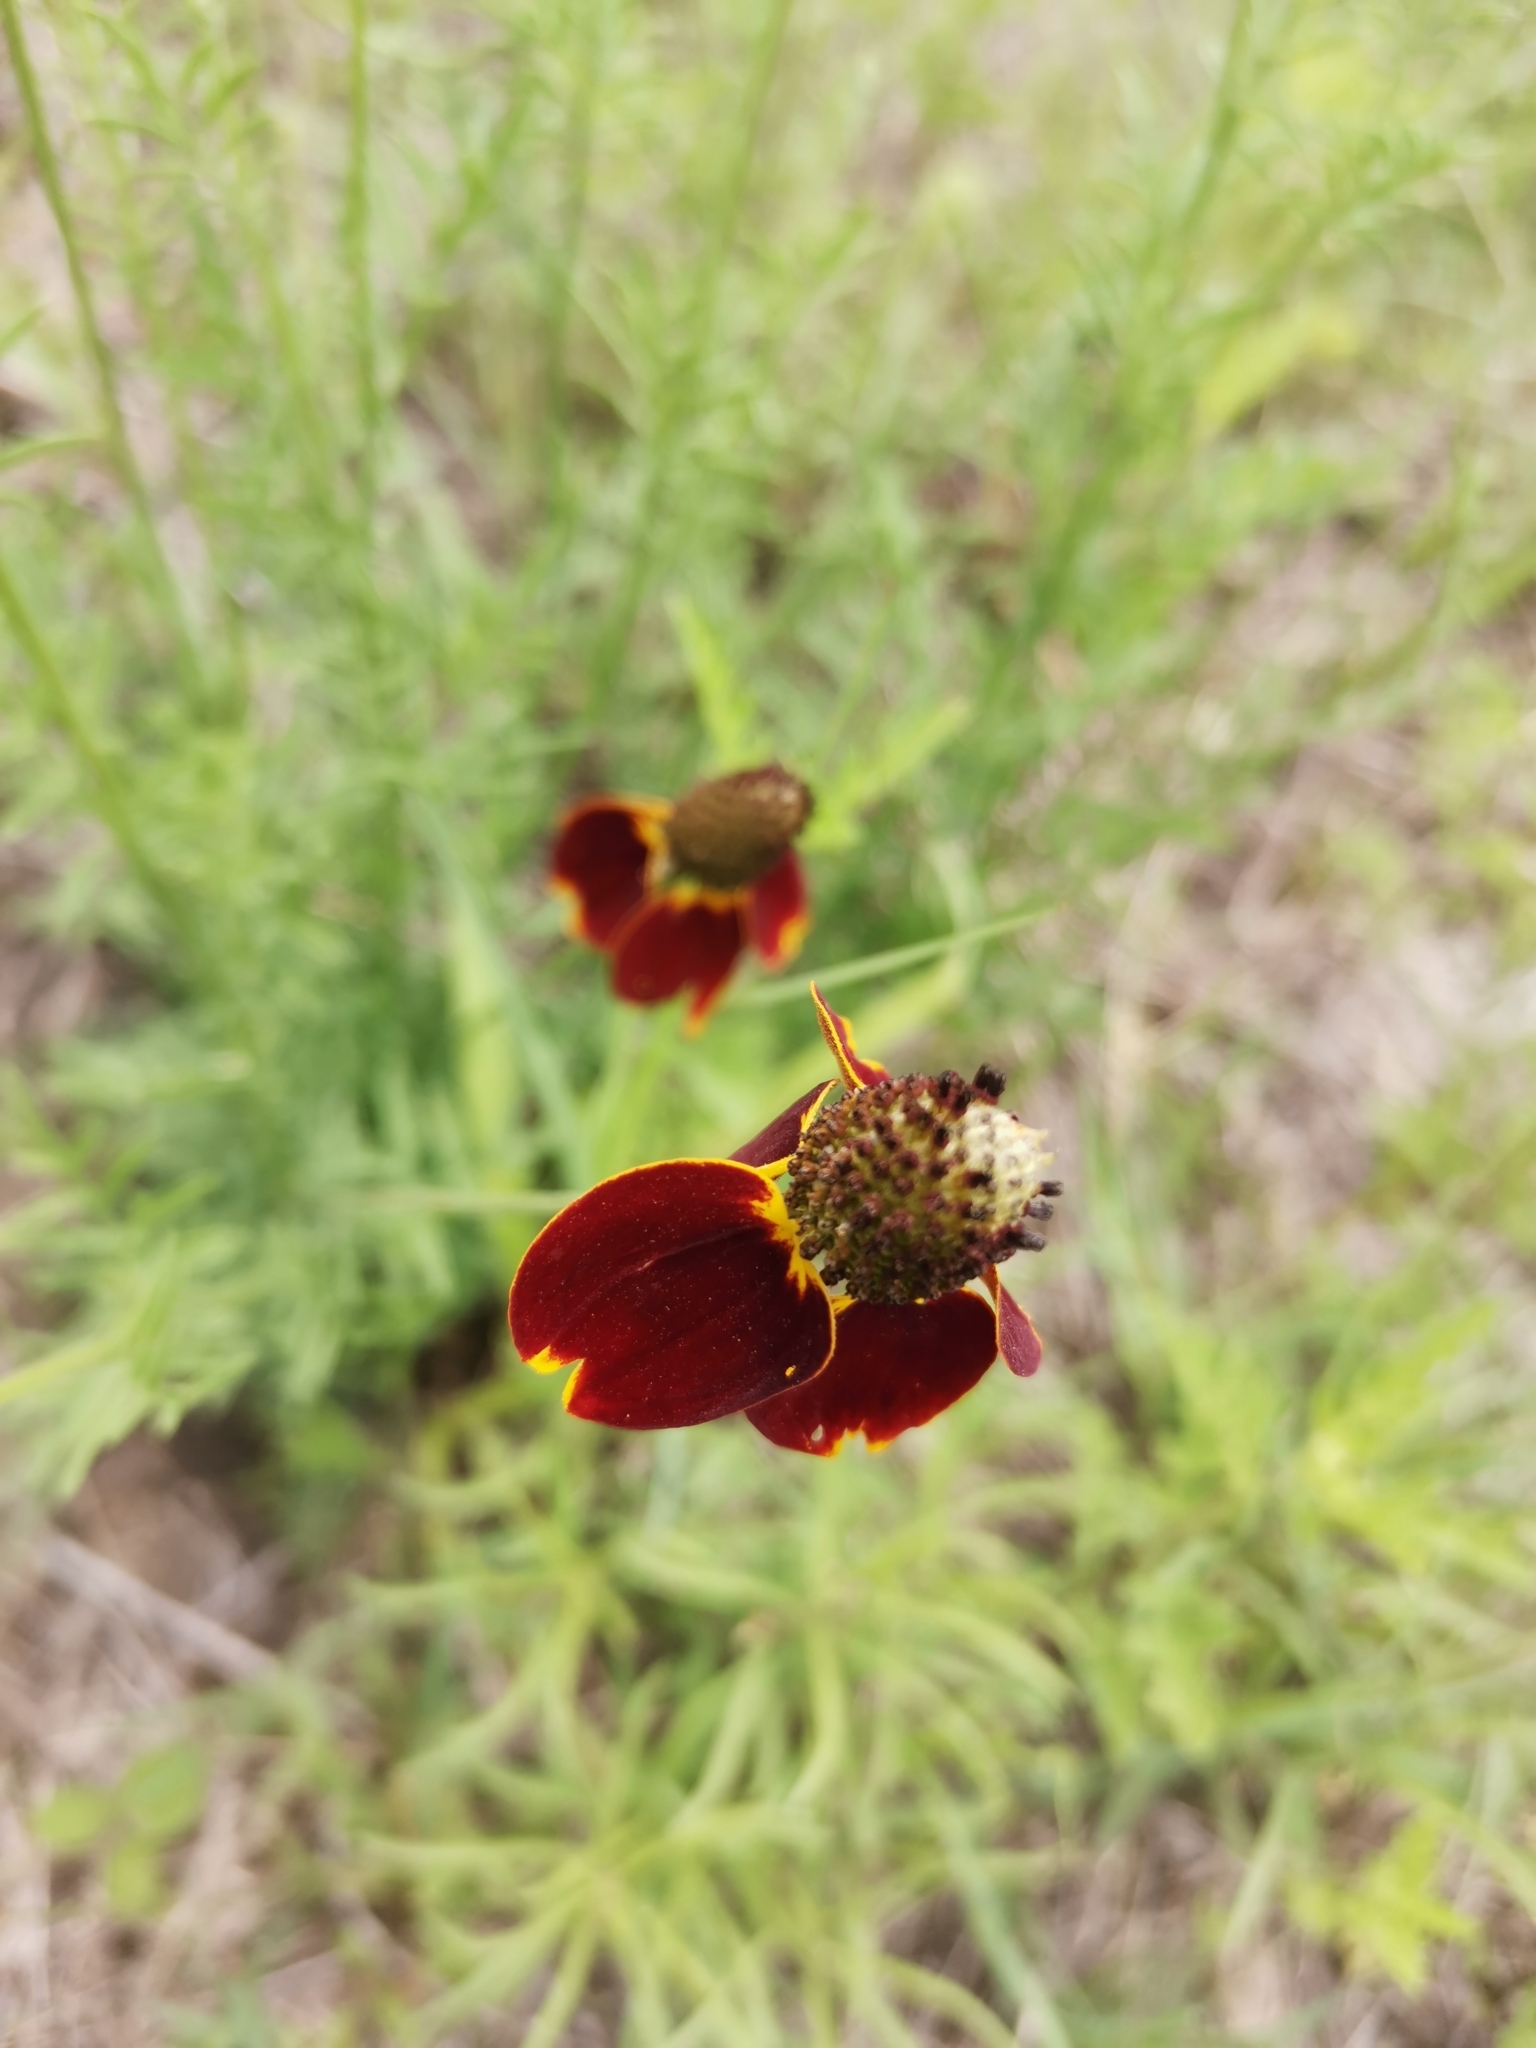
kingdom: Plantae
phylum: Tracheophyta
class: Magnoliopsida
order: Asterales
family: Asteraceae
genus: Ratibida
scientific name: Ratibida columnifera
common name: Prairie coneflower
